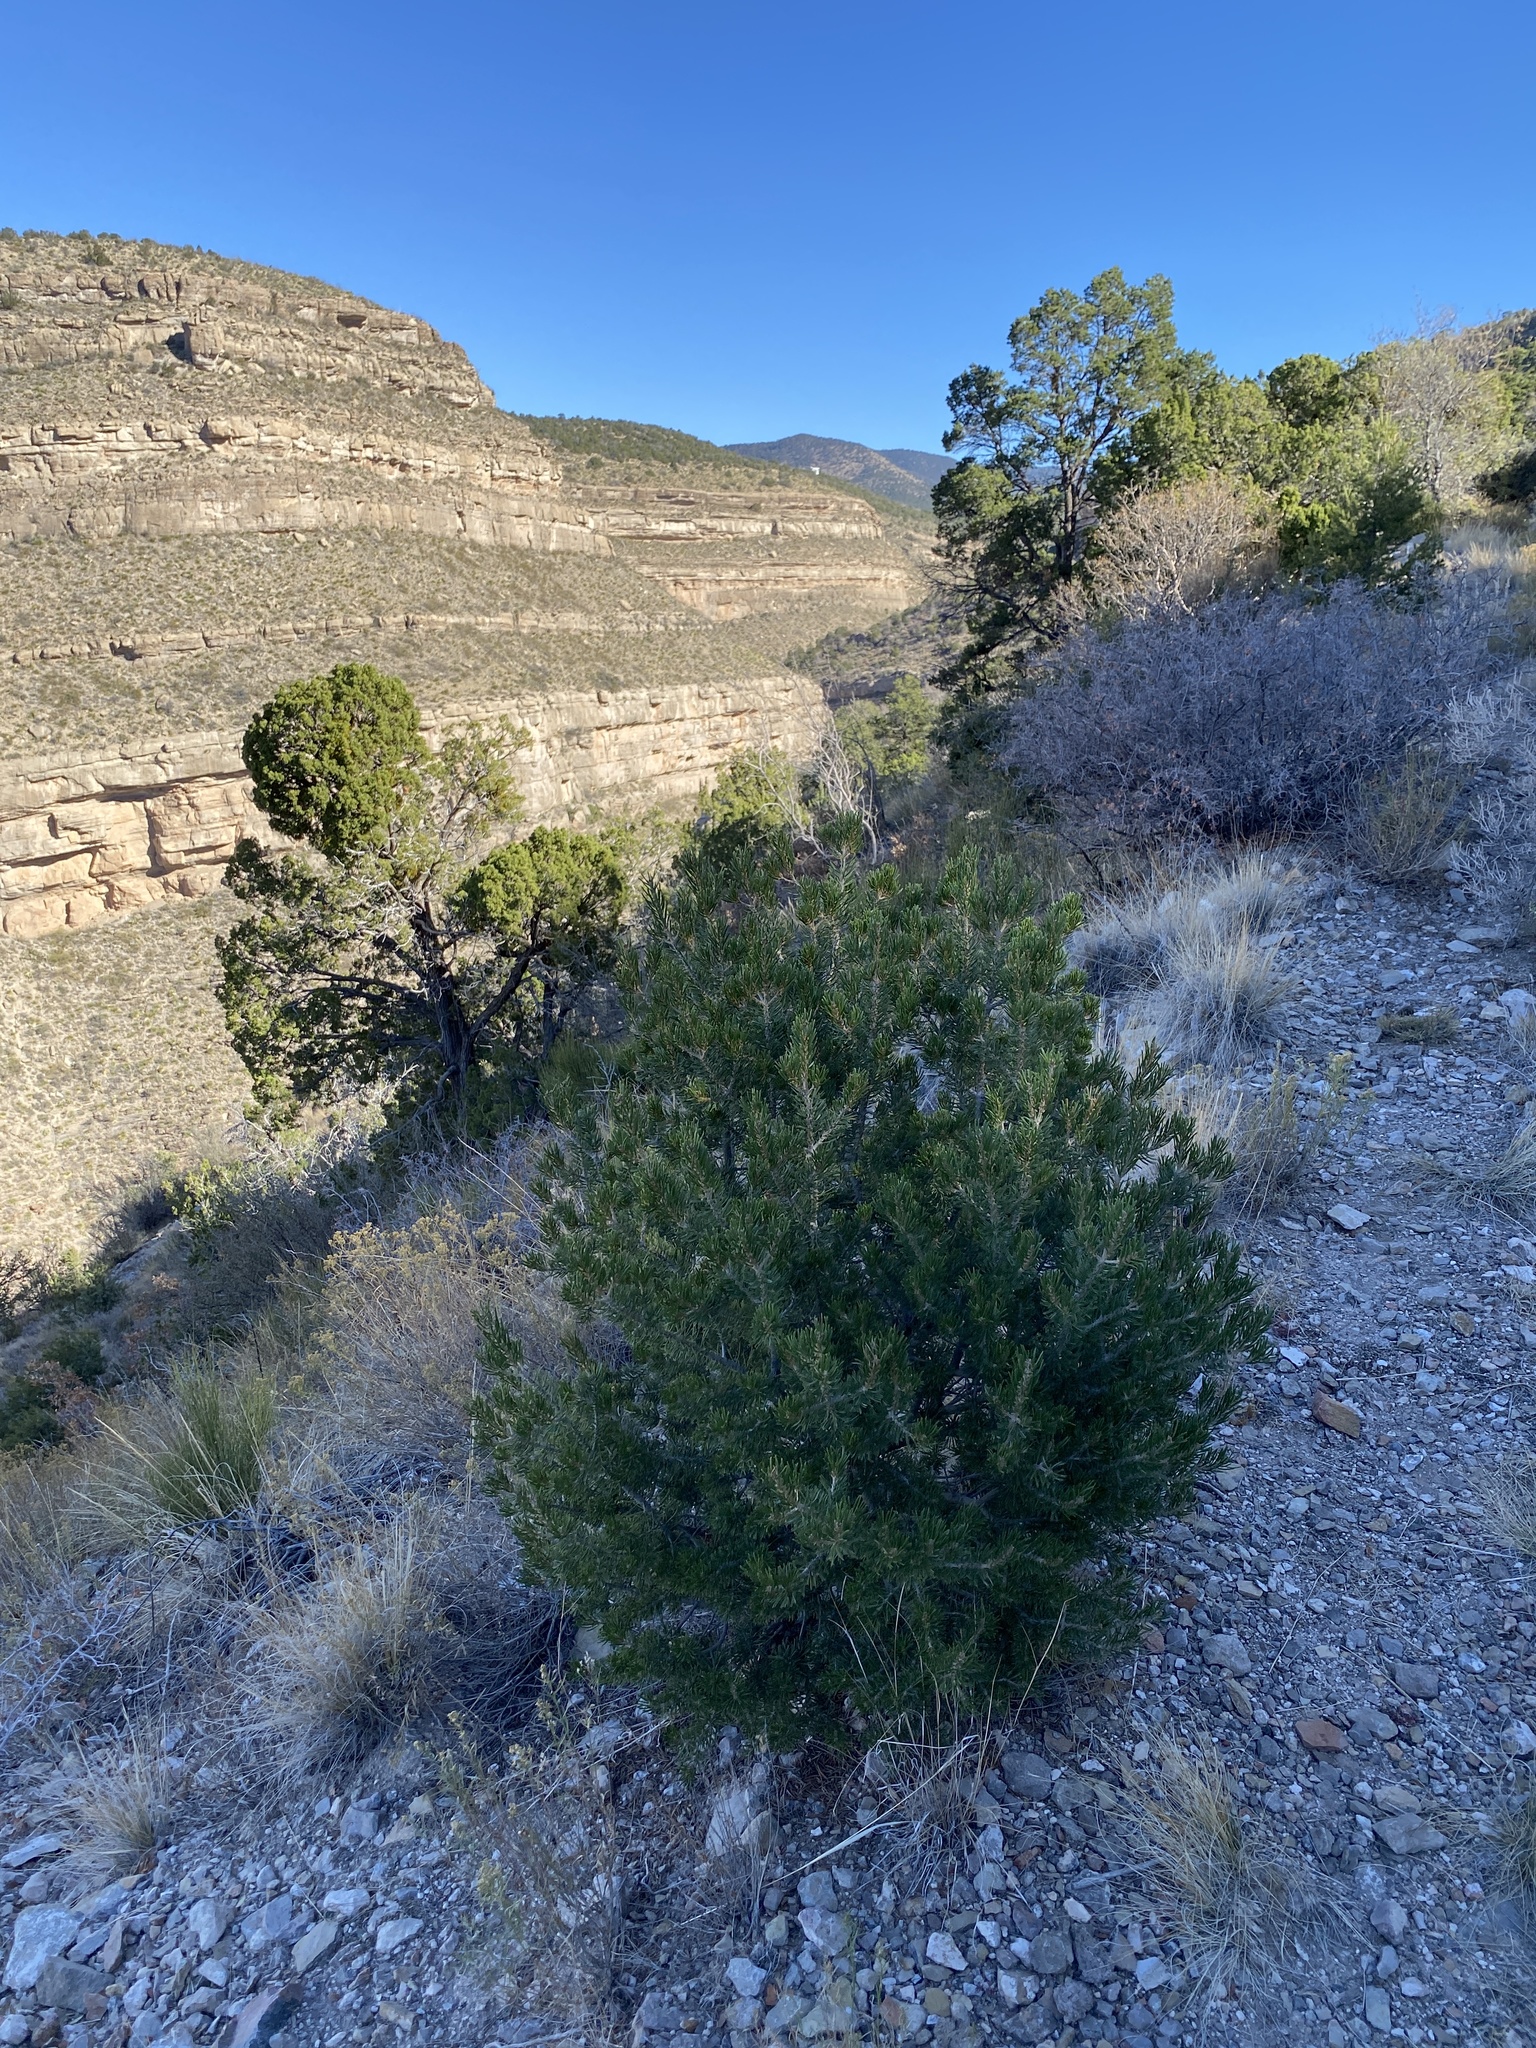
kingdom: Plantae
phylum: Tracheophyta
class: Pinopsida
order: Pinales
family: Pinaceae
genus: Pinus
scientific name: Pinus edulis
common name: Colorado pinyon
